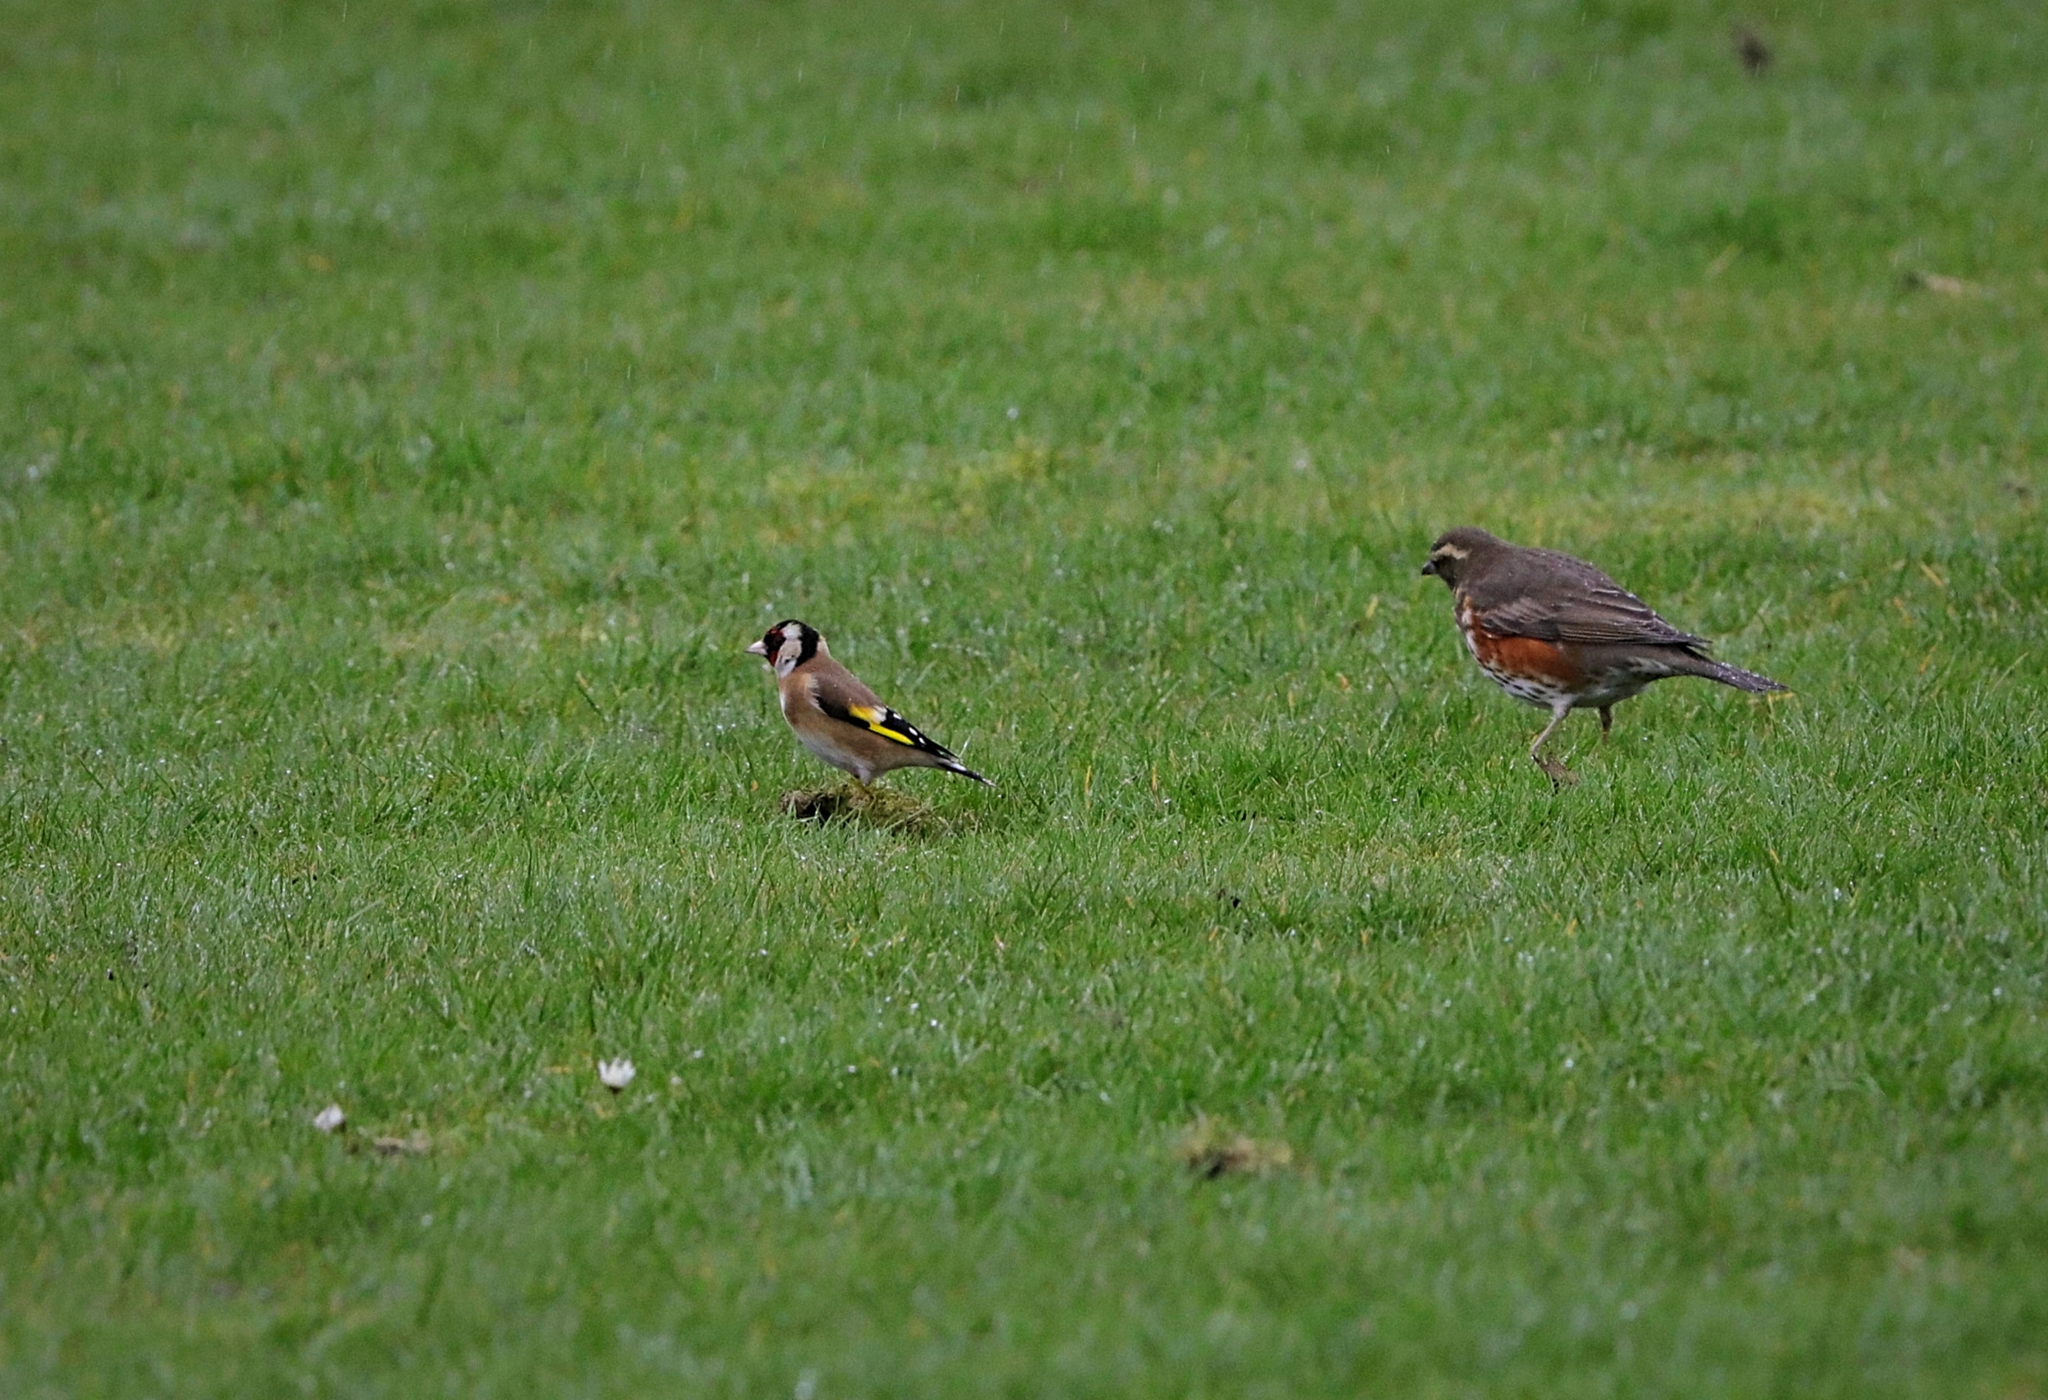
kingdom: Animalia
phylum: Chordata
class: Aves
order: Passeriformes
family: Fringillidae
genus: Carduelis
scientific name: Carduelis carduelis
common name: European goldfinch
